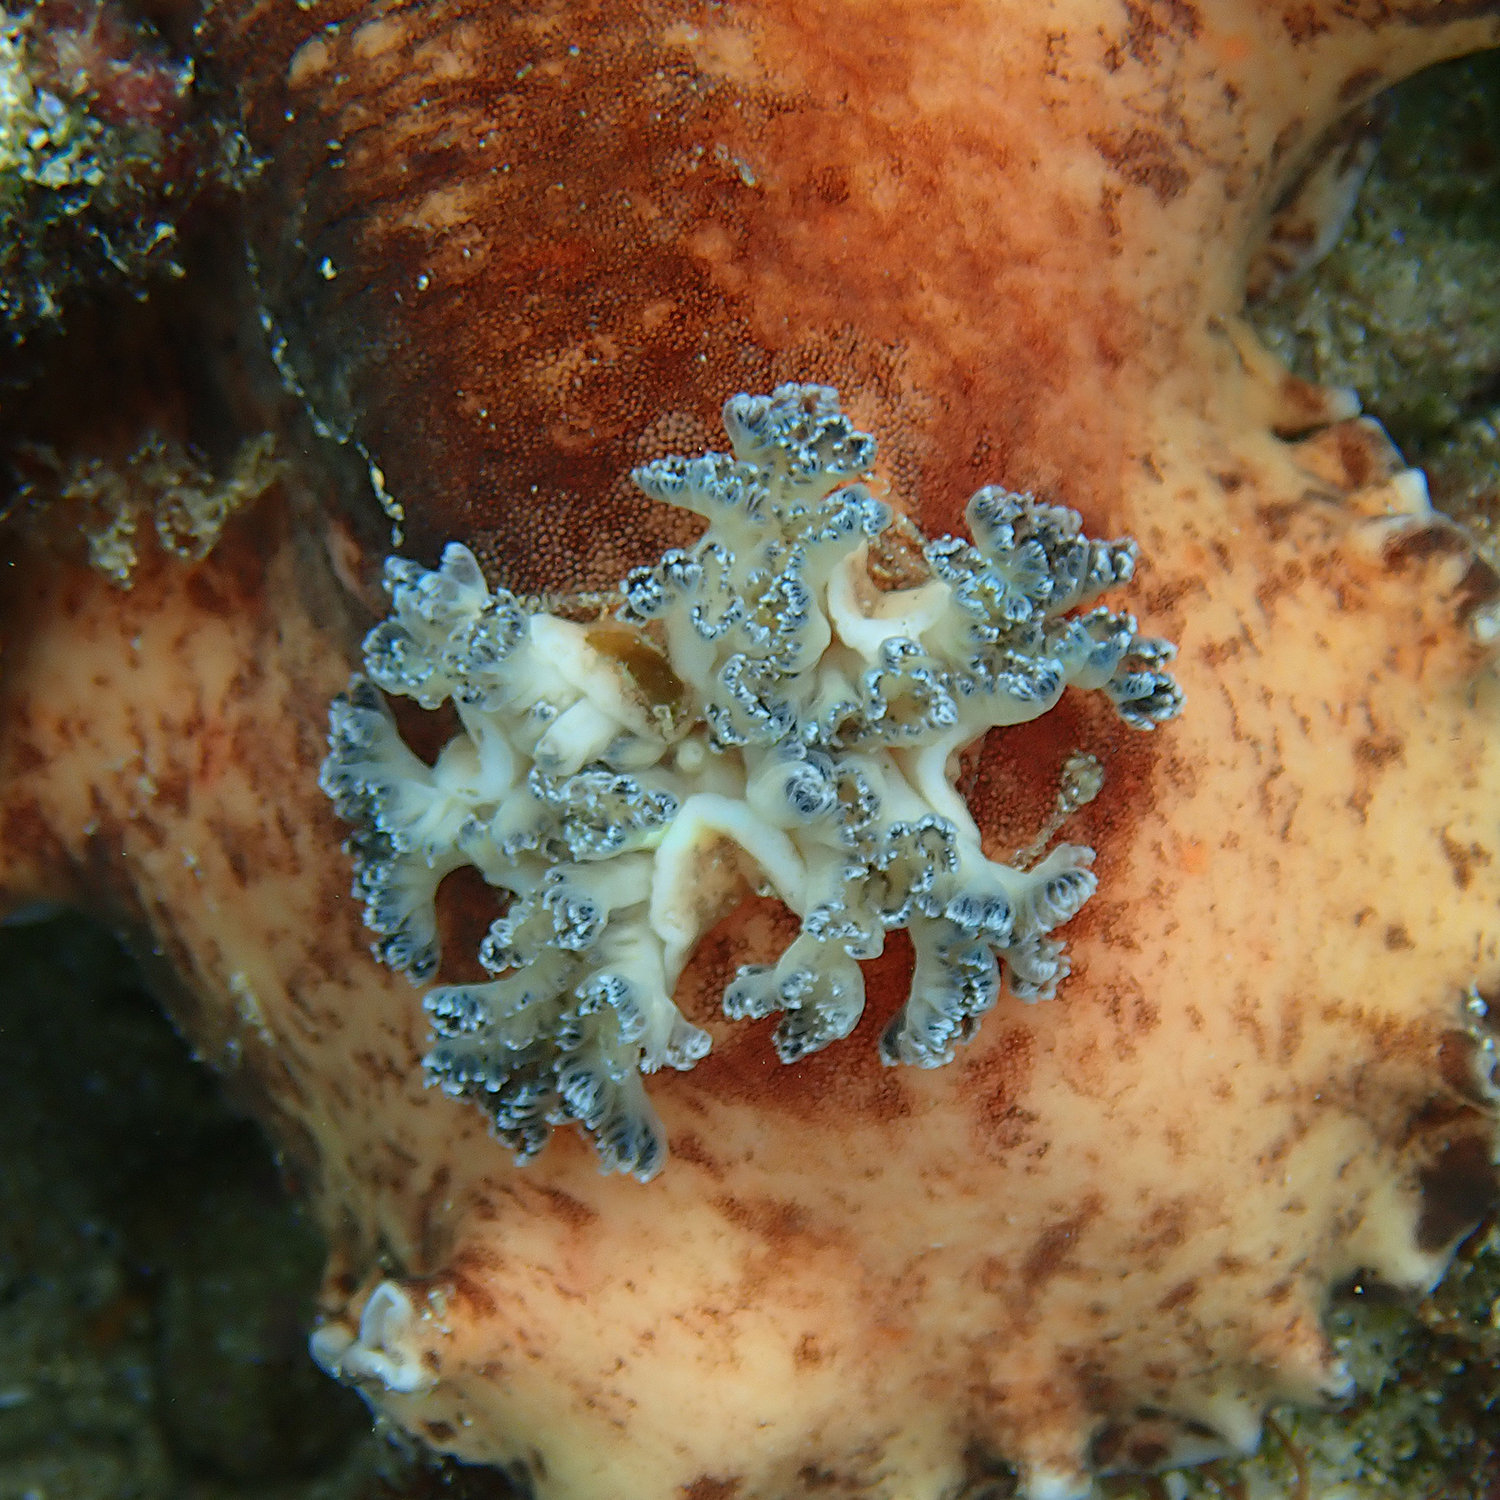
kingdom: Animalia
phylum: Mollusca
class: Gastropoda
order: Nudibranchia
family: Discodorididae
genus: Platydoris
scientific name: Platydoris cinereobranchiata
